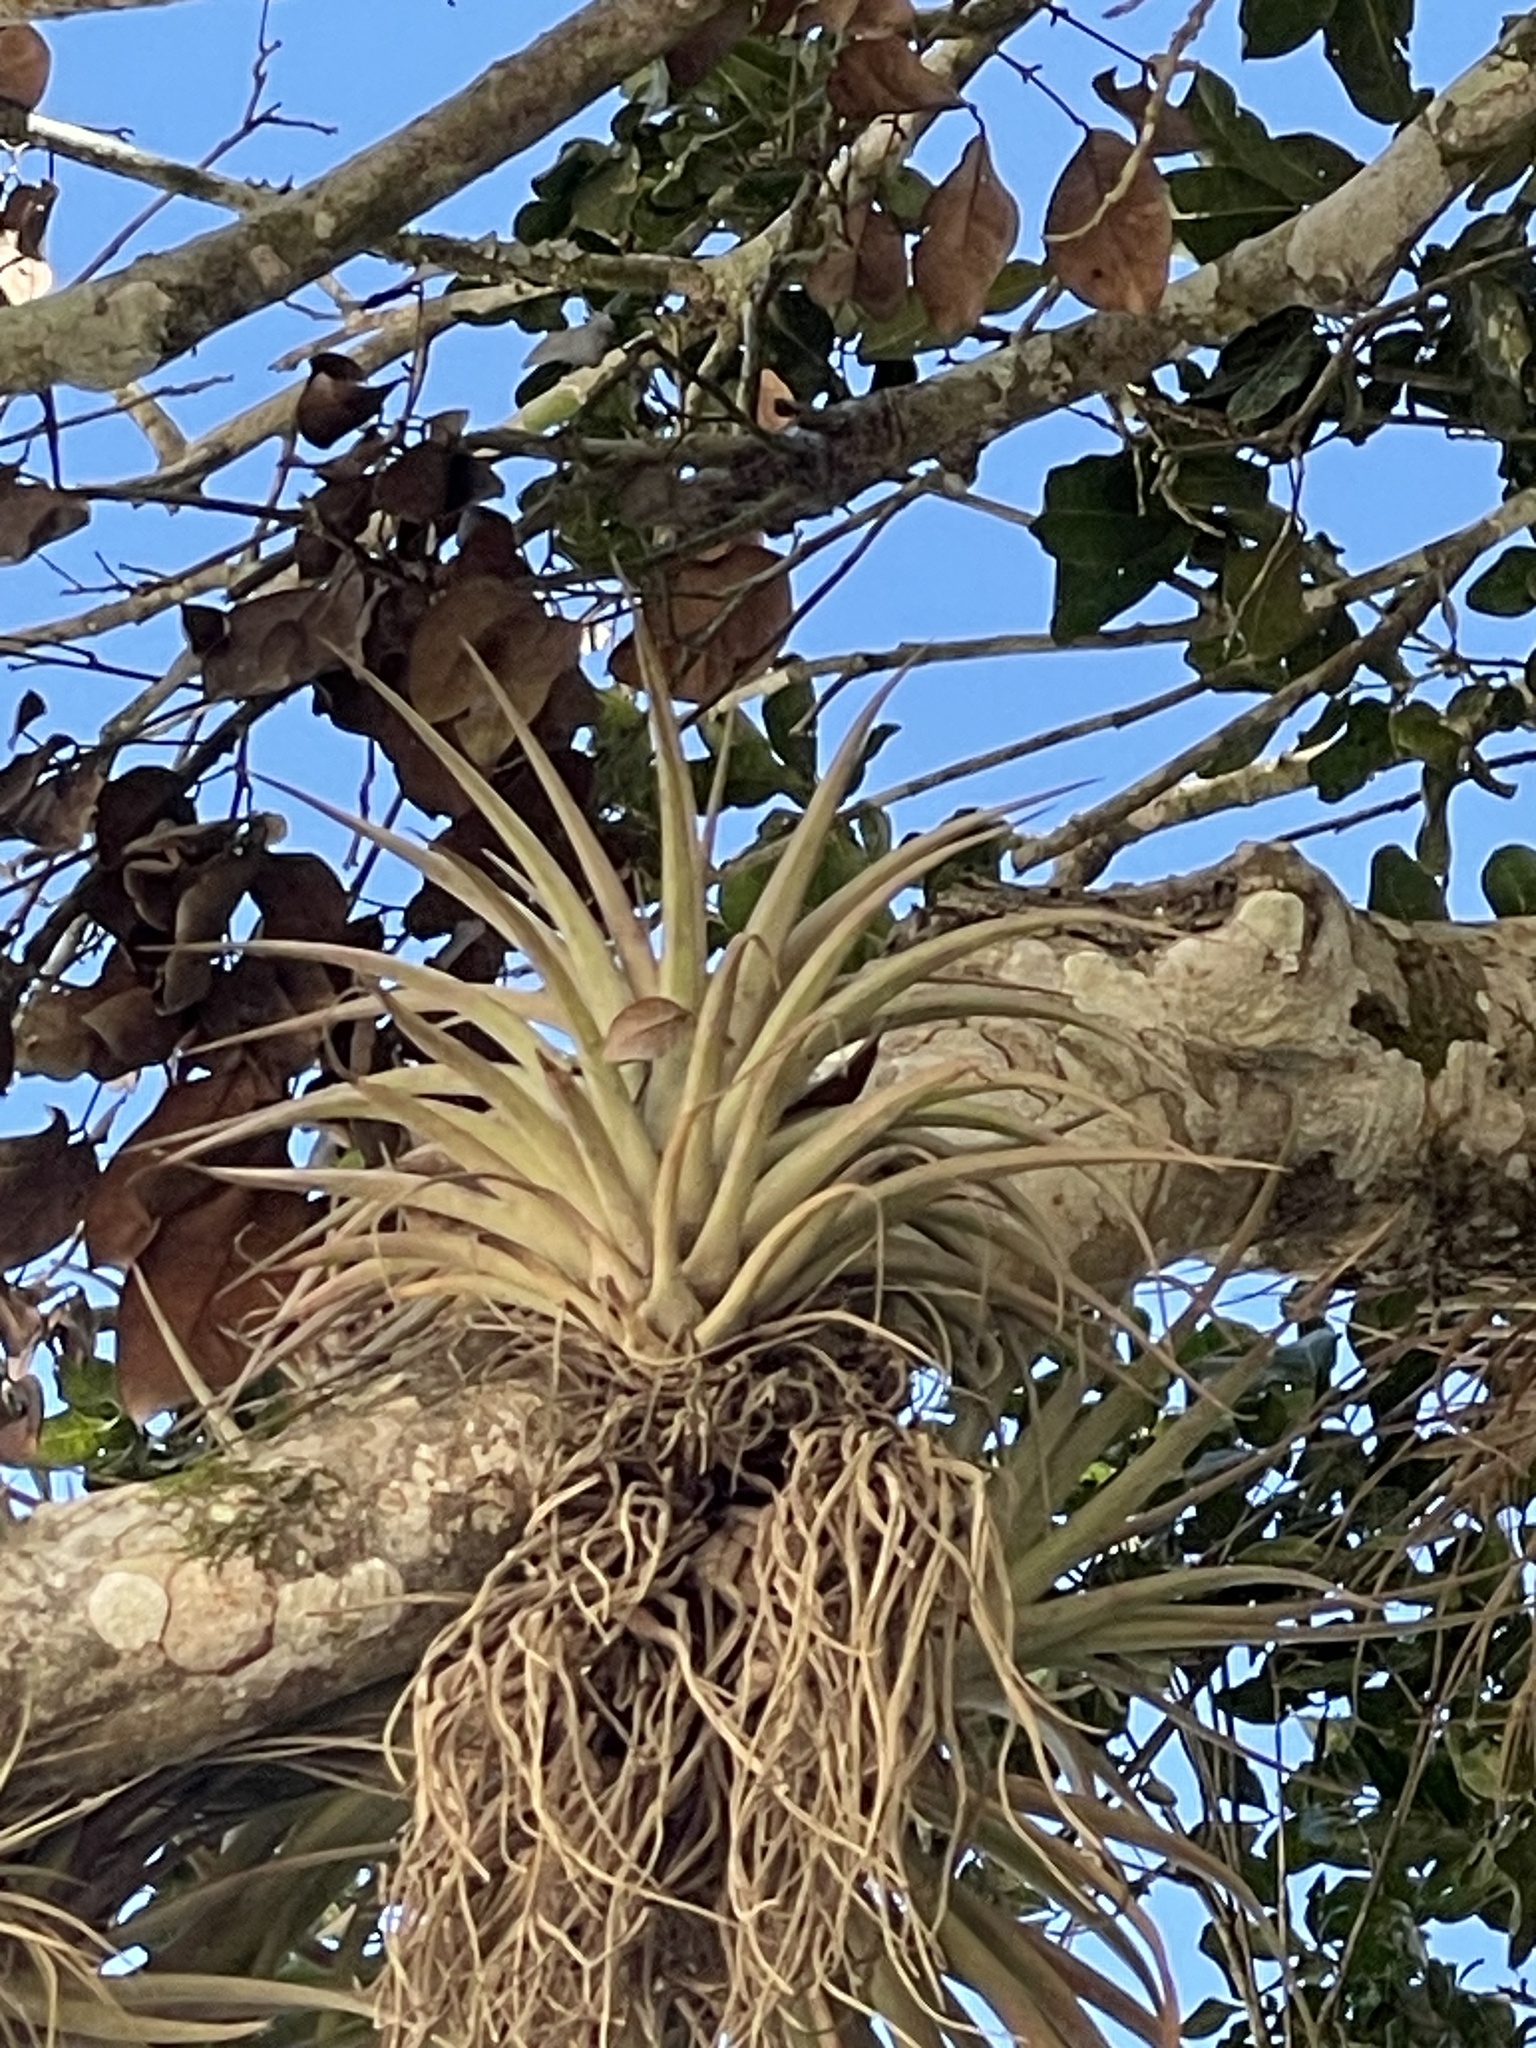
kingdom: Plantae
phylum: Tracheophyta
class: Liliopsida
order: Poales
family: Bromeliaceae
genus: Tillandsia
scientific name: Tillandsia brachycaulos
